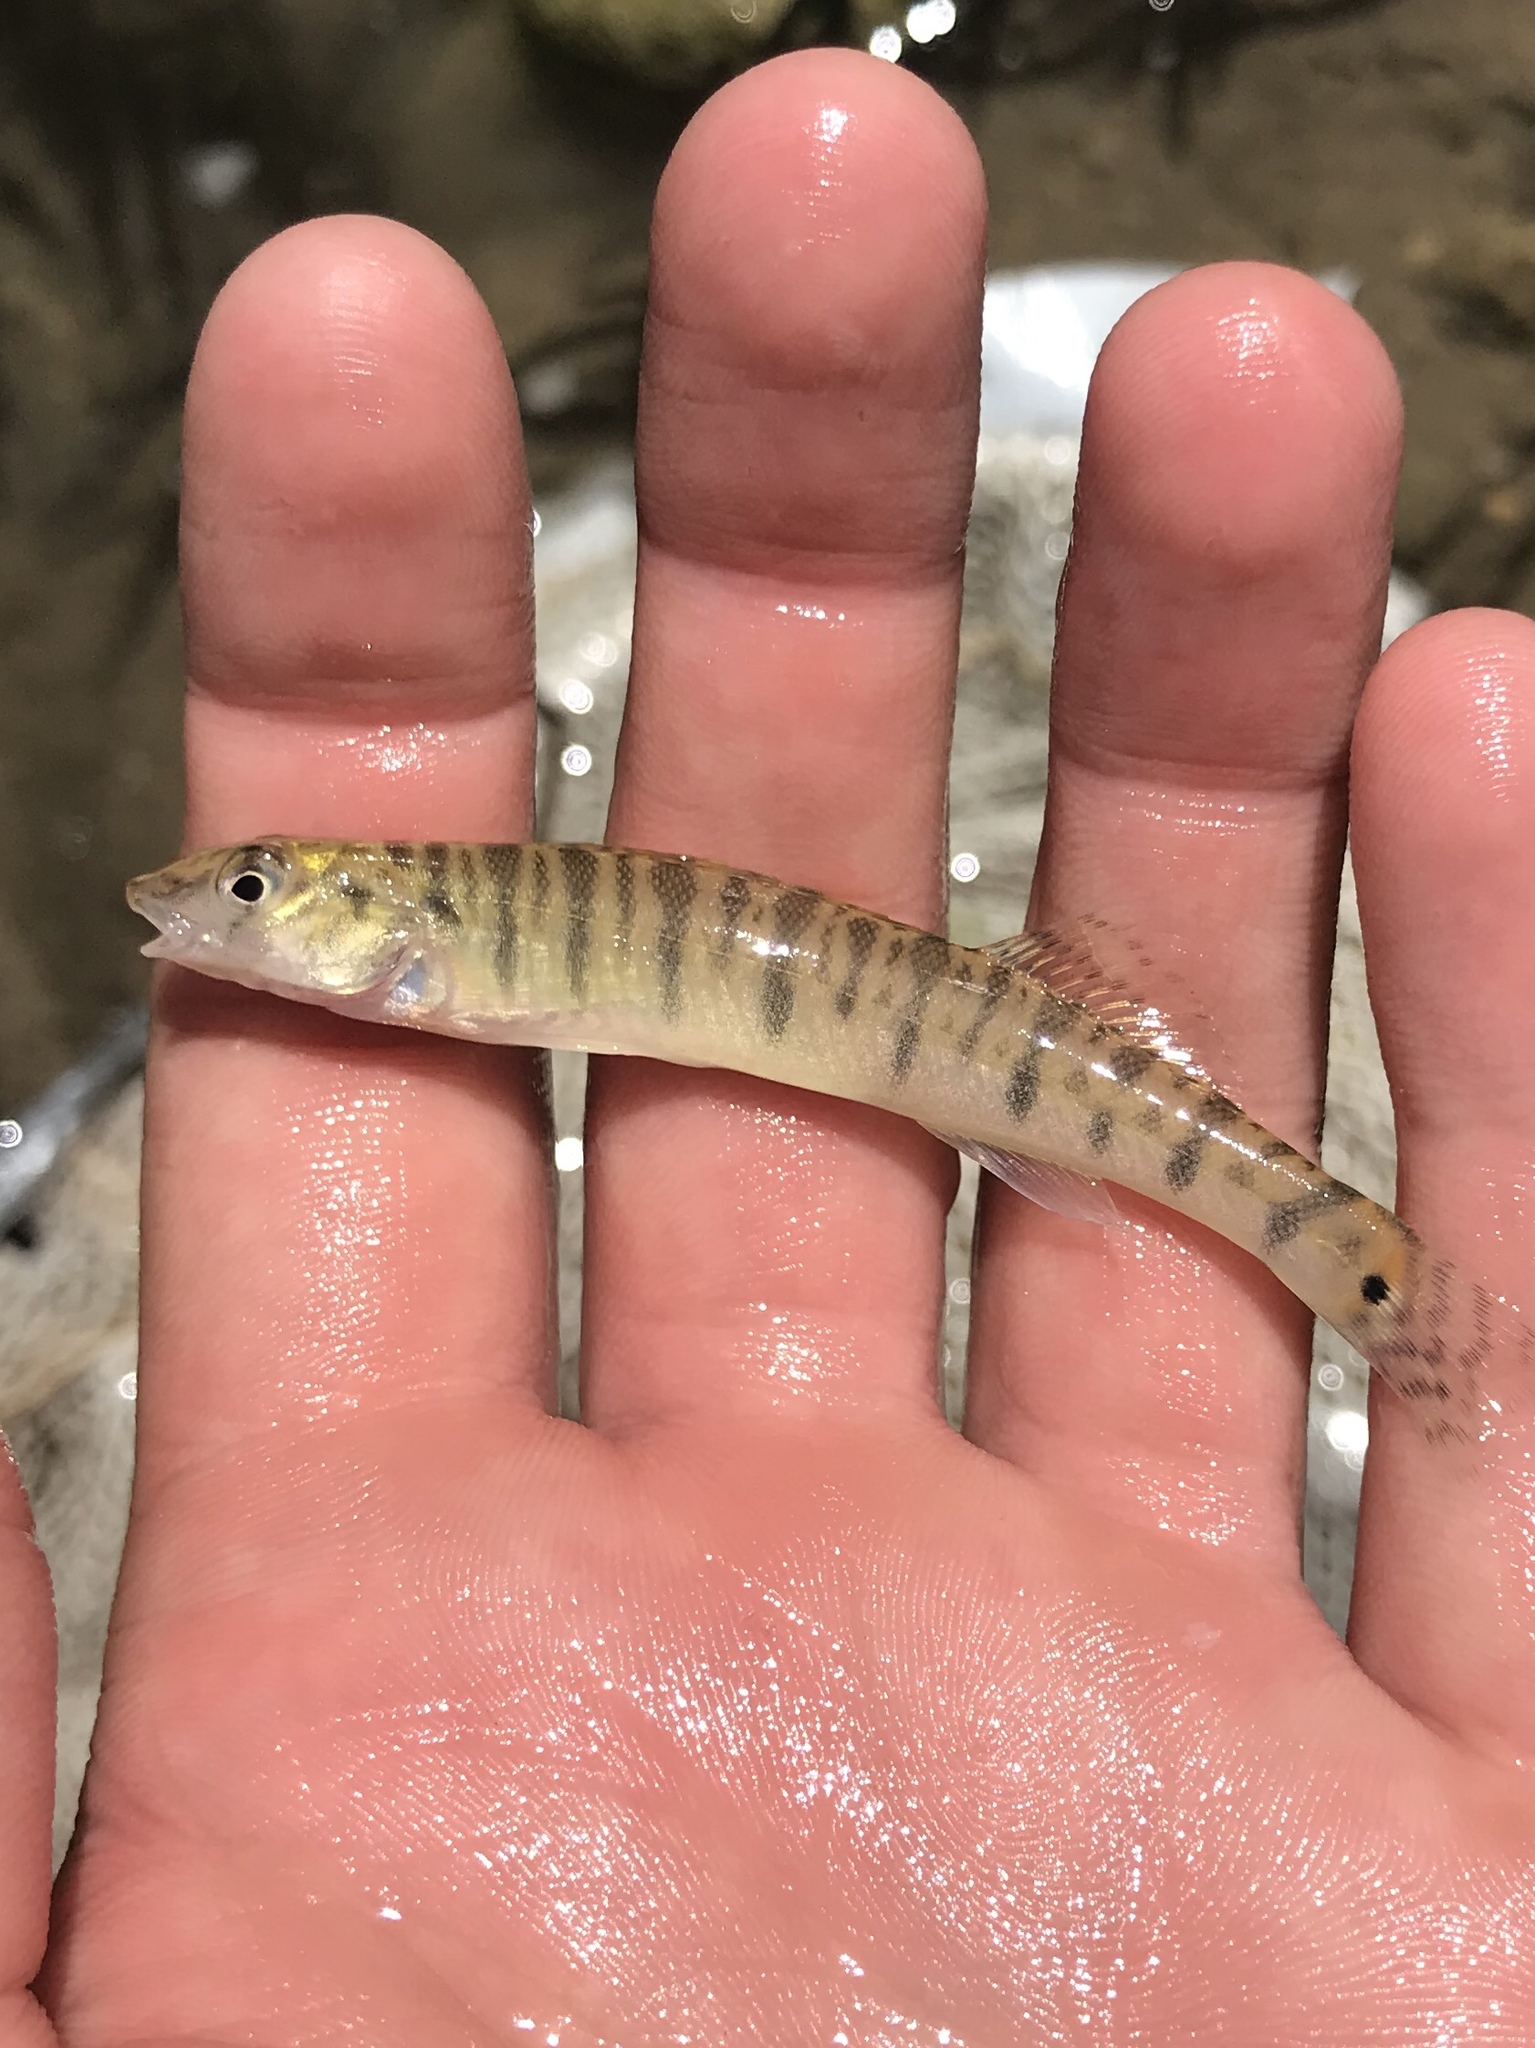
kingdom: Animalia
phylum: Chordata
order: Perciformes
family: Percidae
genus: Percina
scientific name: Percina carbonaria
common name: Texas logperch
